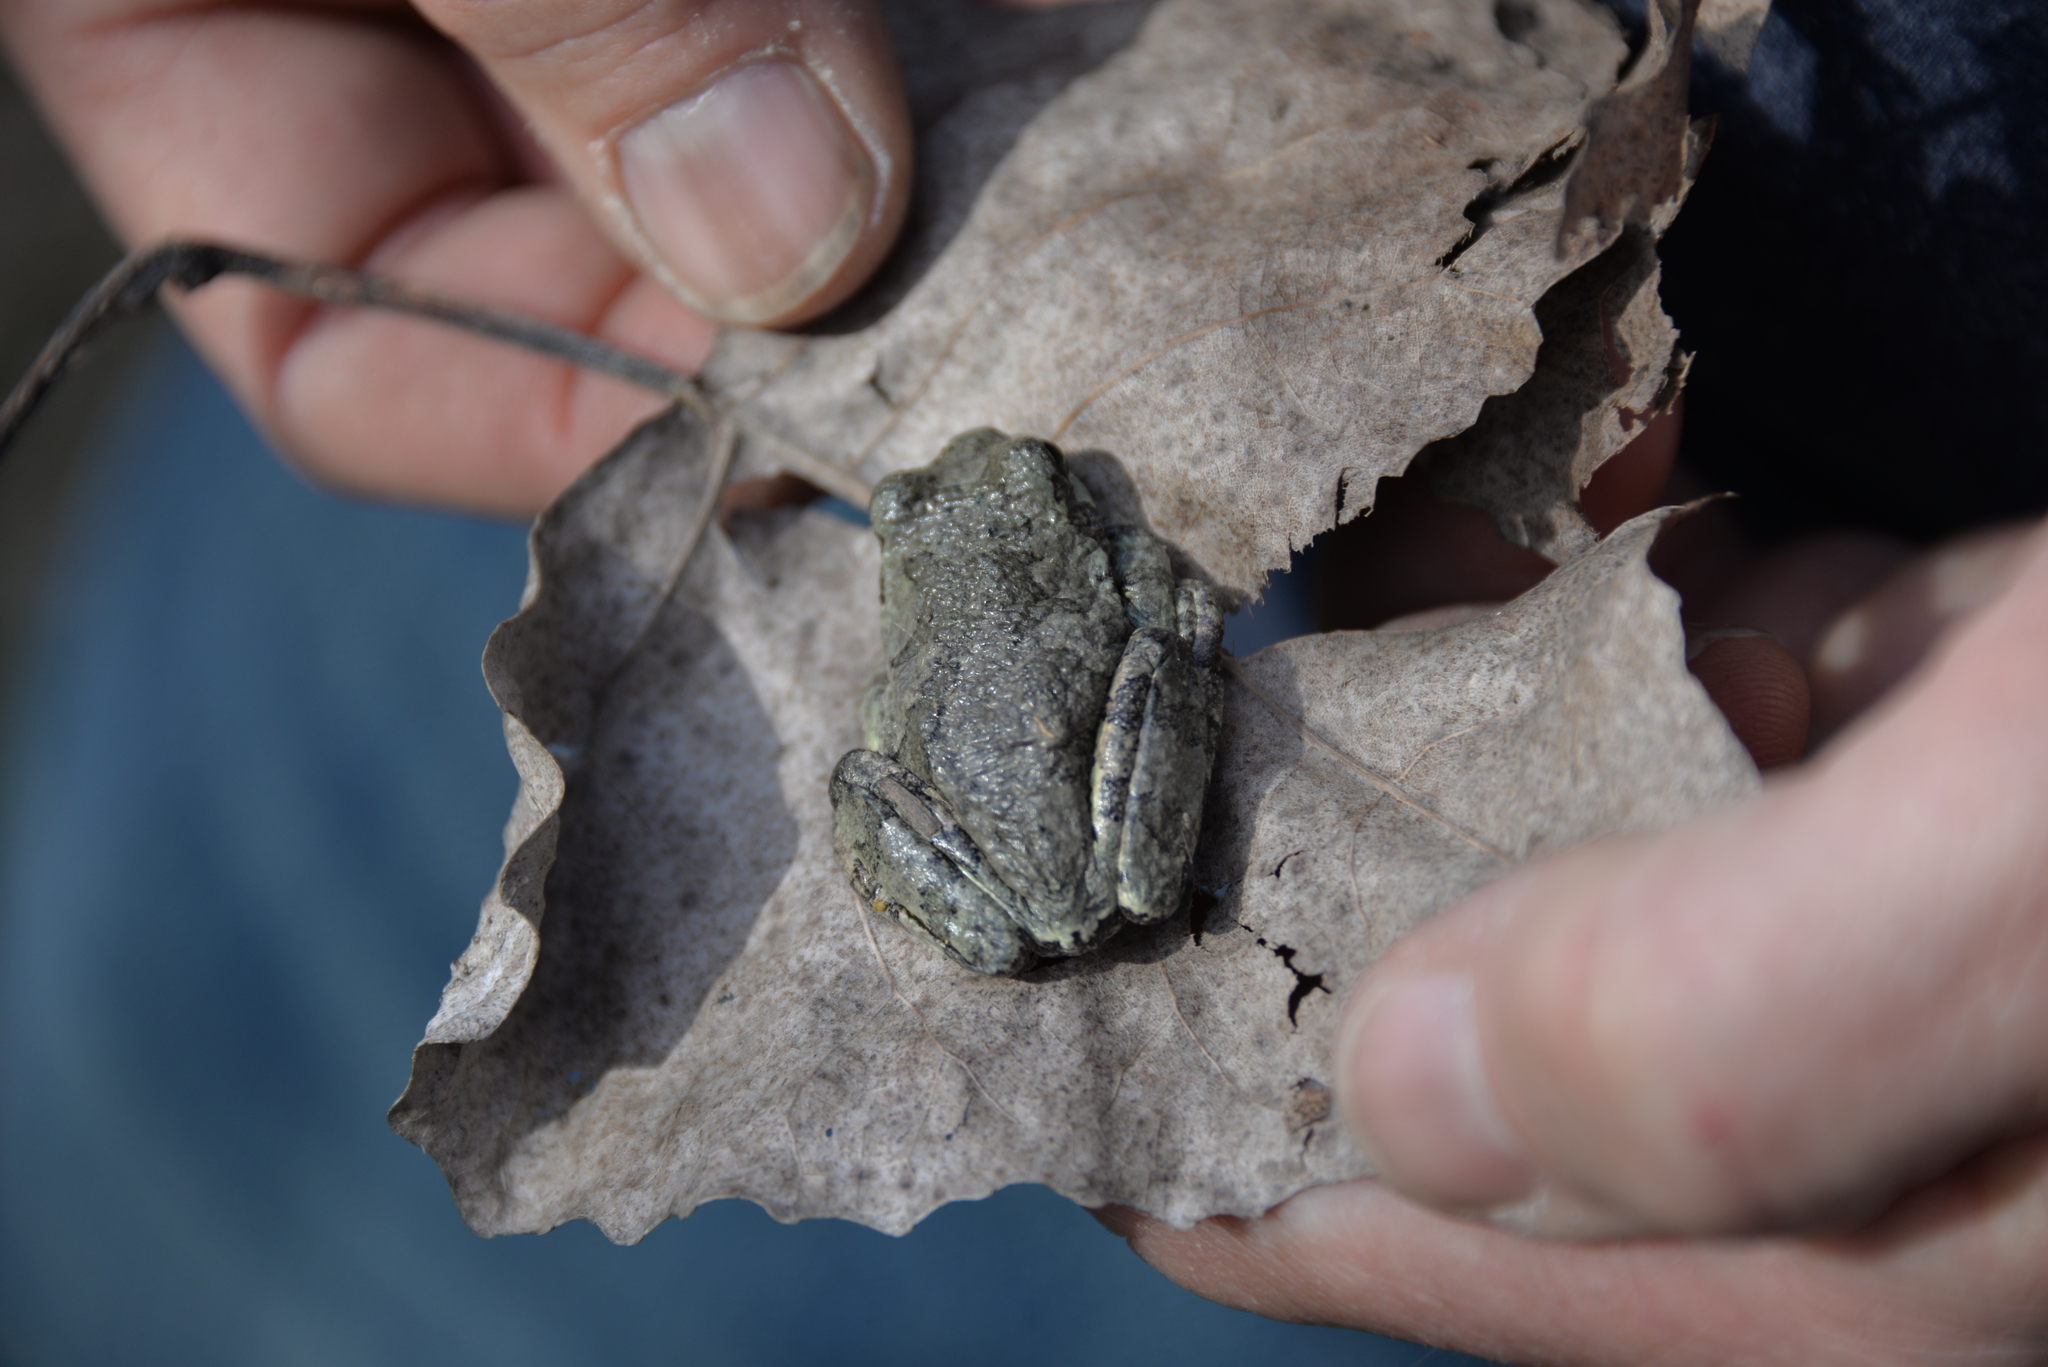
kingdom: Animalia
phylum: Chordata
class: Amphibia
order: Anura
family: Hylidae
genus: Hyla
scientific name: Hyla
